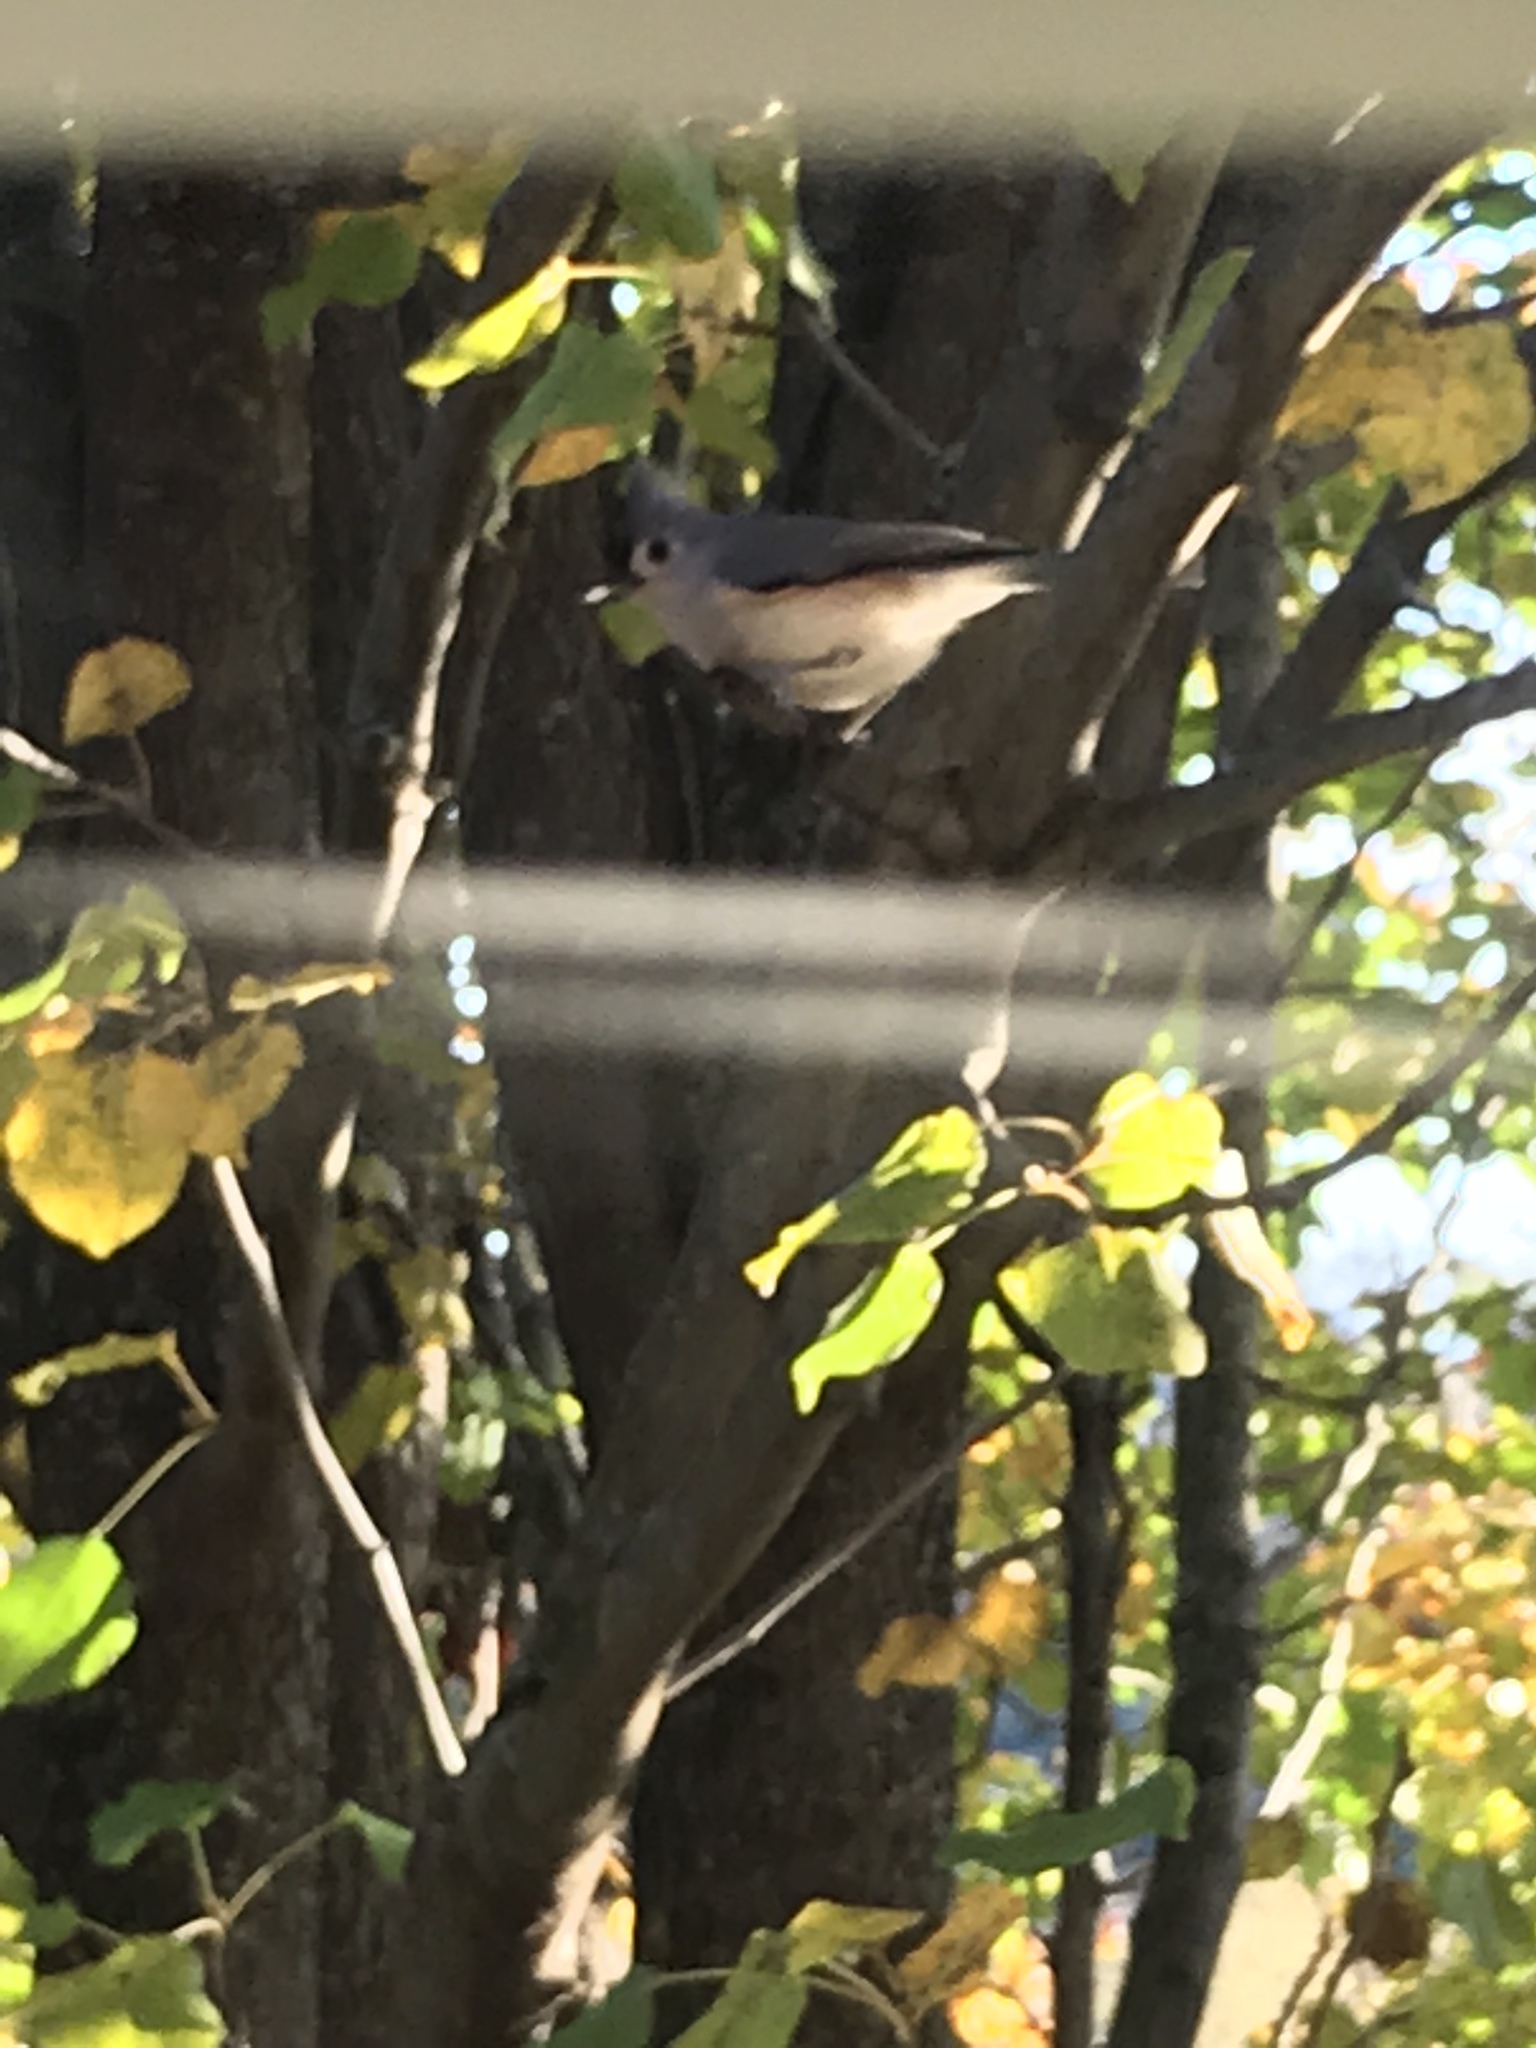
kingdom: Animalia
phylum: Chordata
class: Aves
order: Passeriformes
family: Paridae
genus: Baeolophus
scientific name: Baeolophus bicolor
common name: Tufted titmouse
